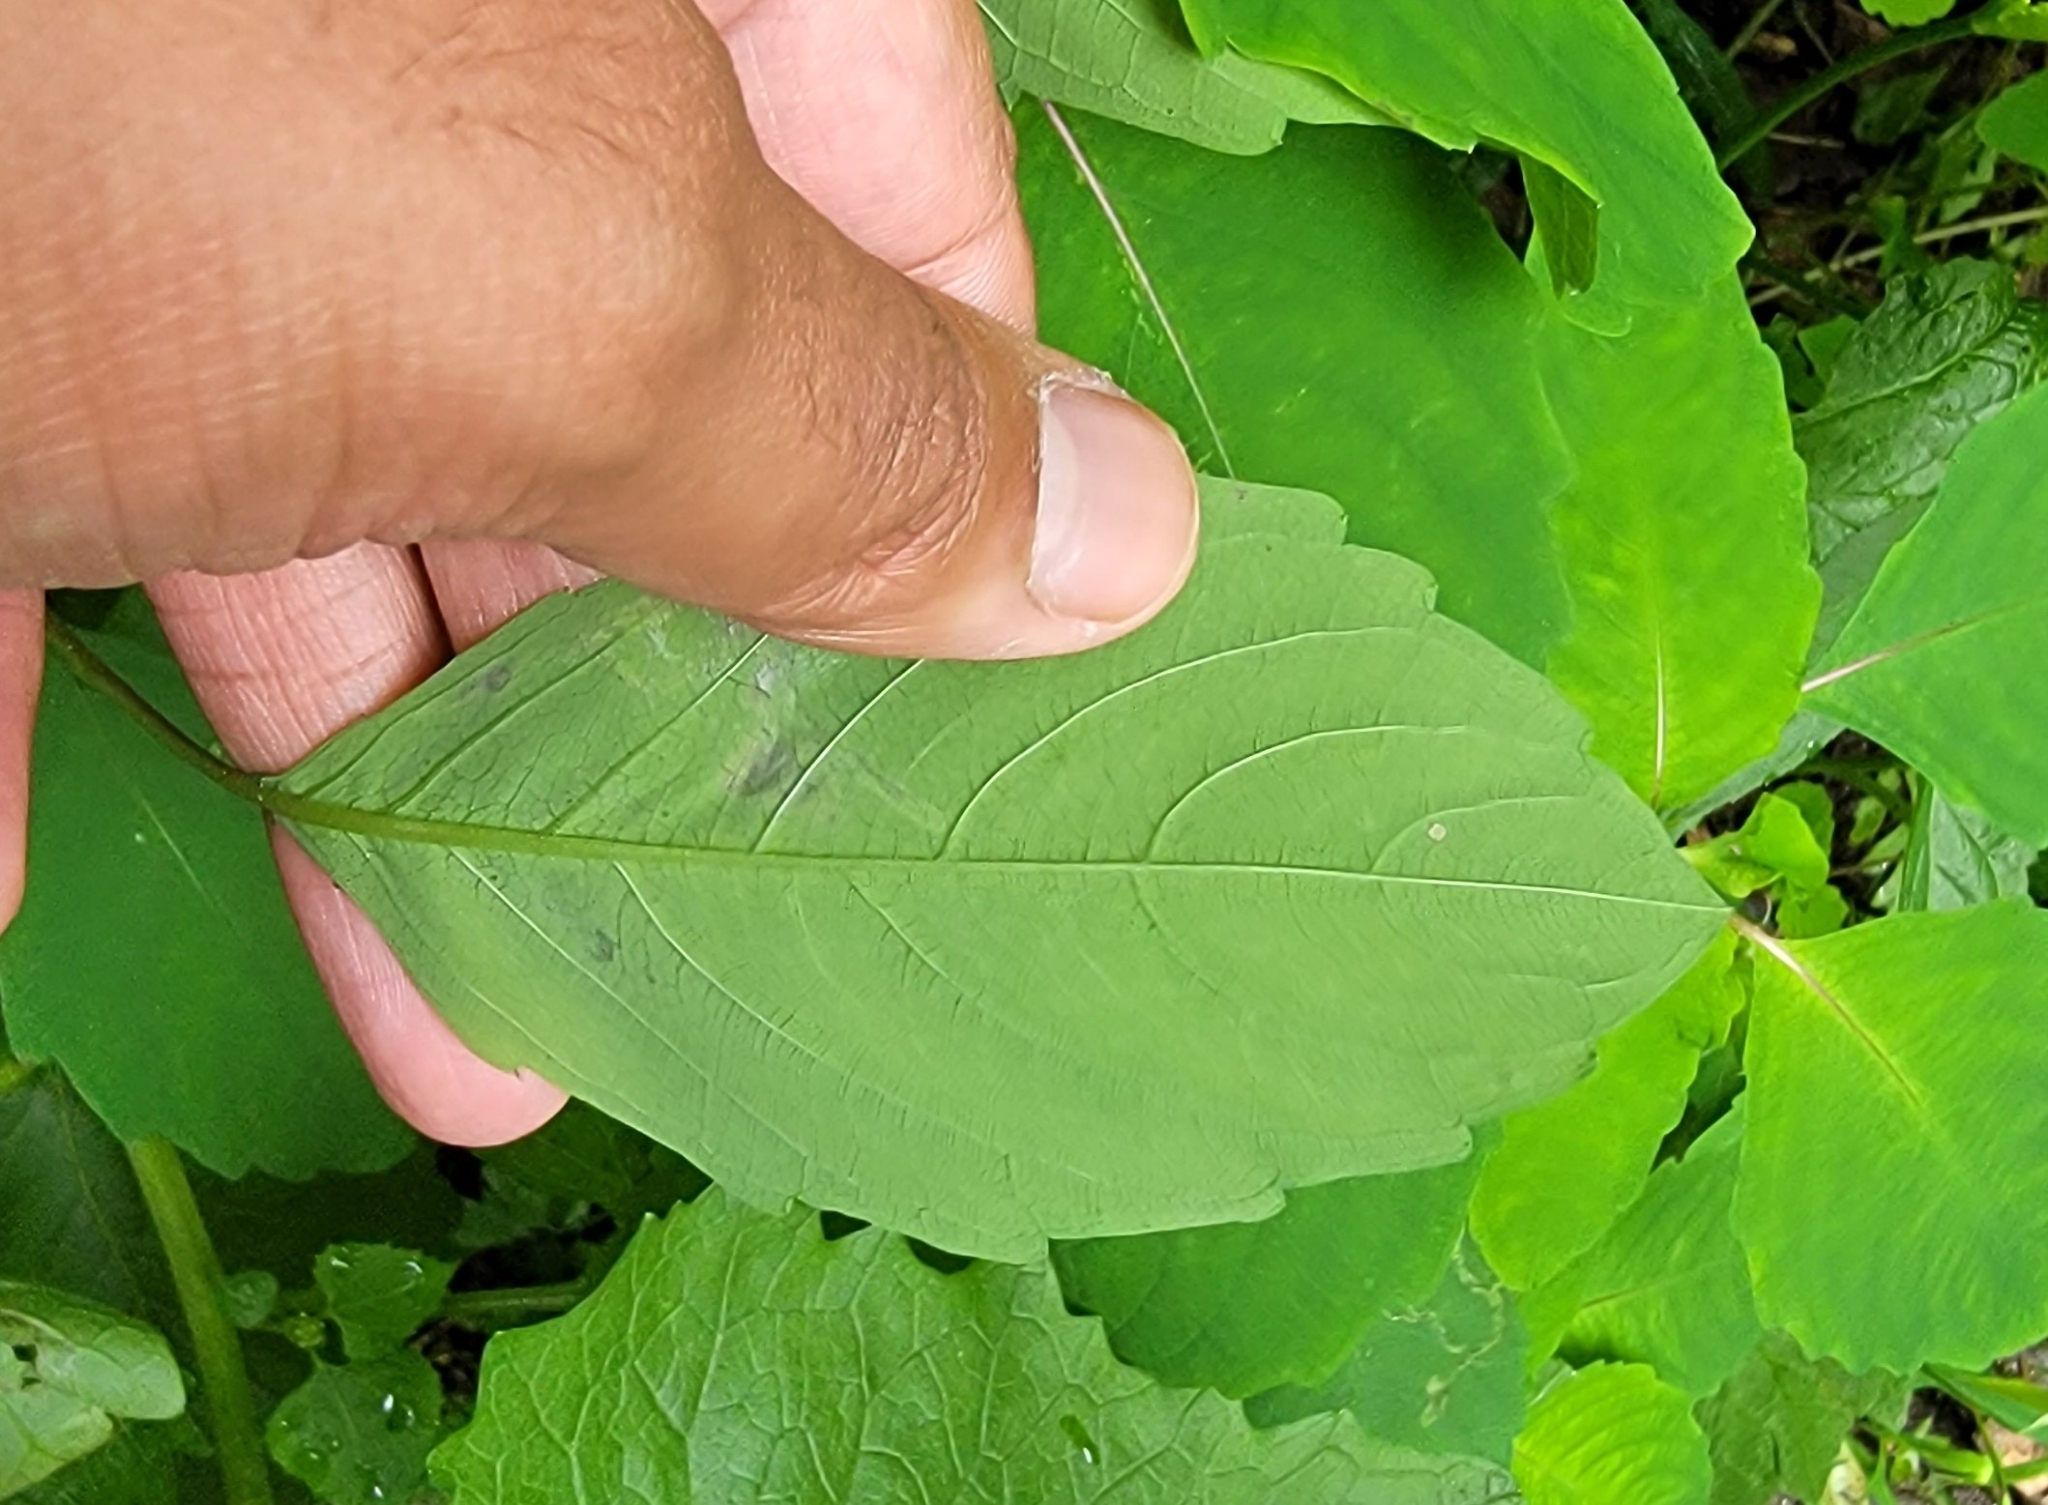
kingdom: Animalia
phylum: Arthropoda
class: Insecta
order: Diptera
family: Agromyzidae
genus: Phytoliriomyza
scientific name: Phytoliriomyza melampyga
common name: Jewelweed leaf-miner fly
